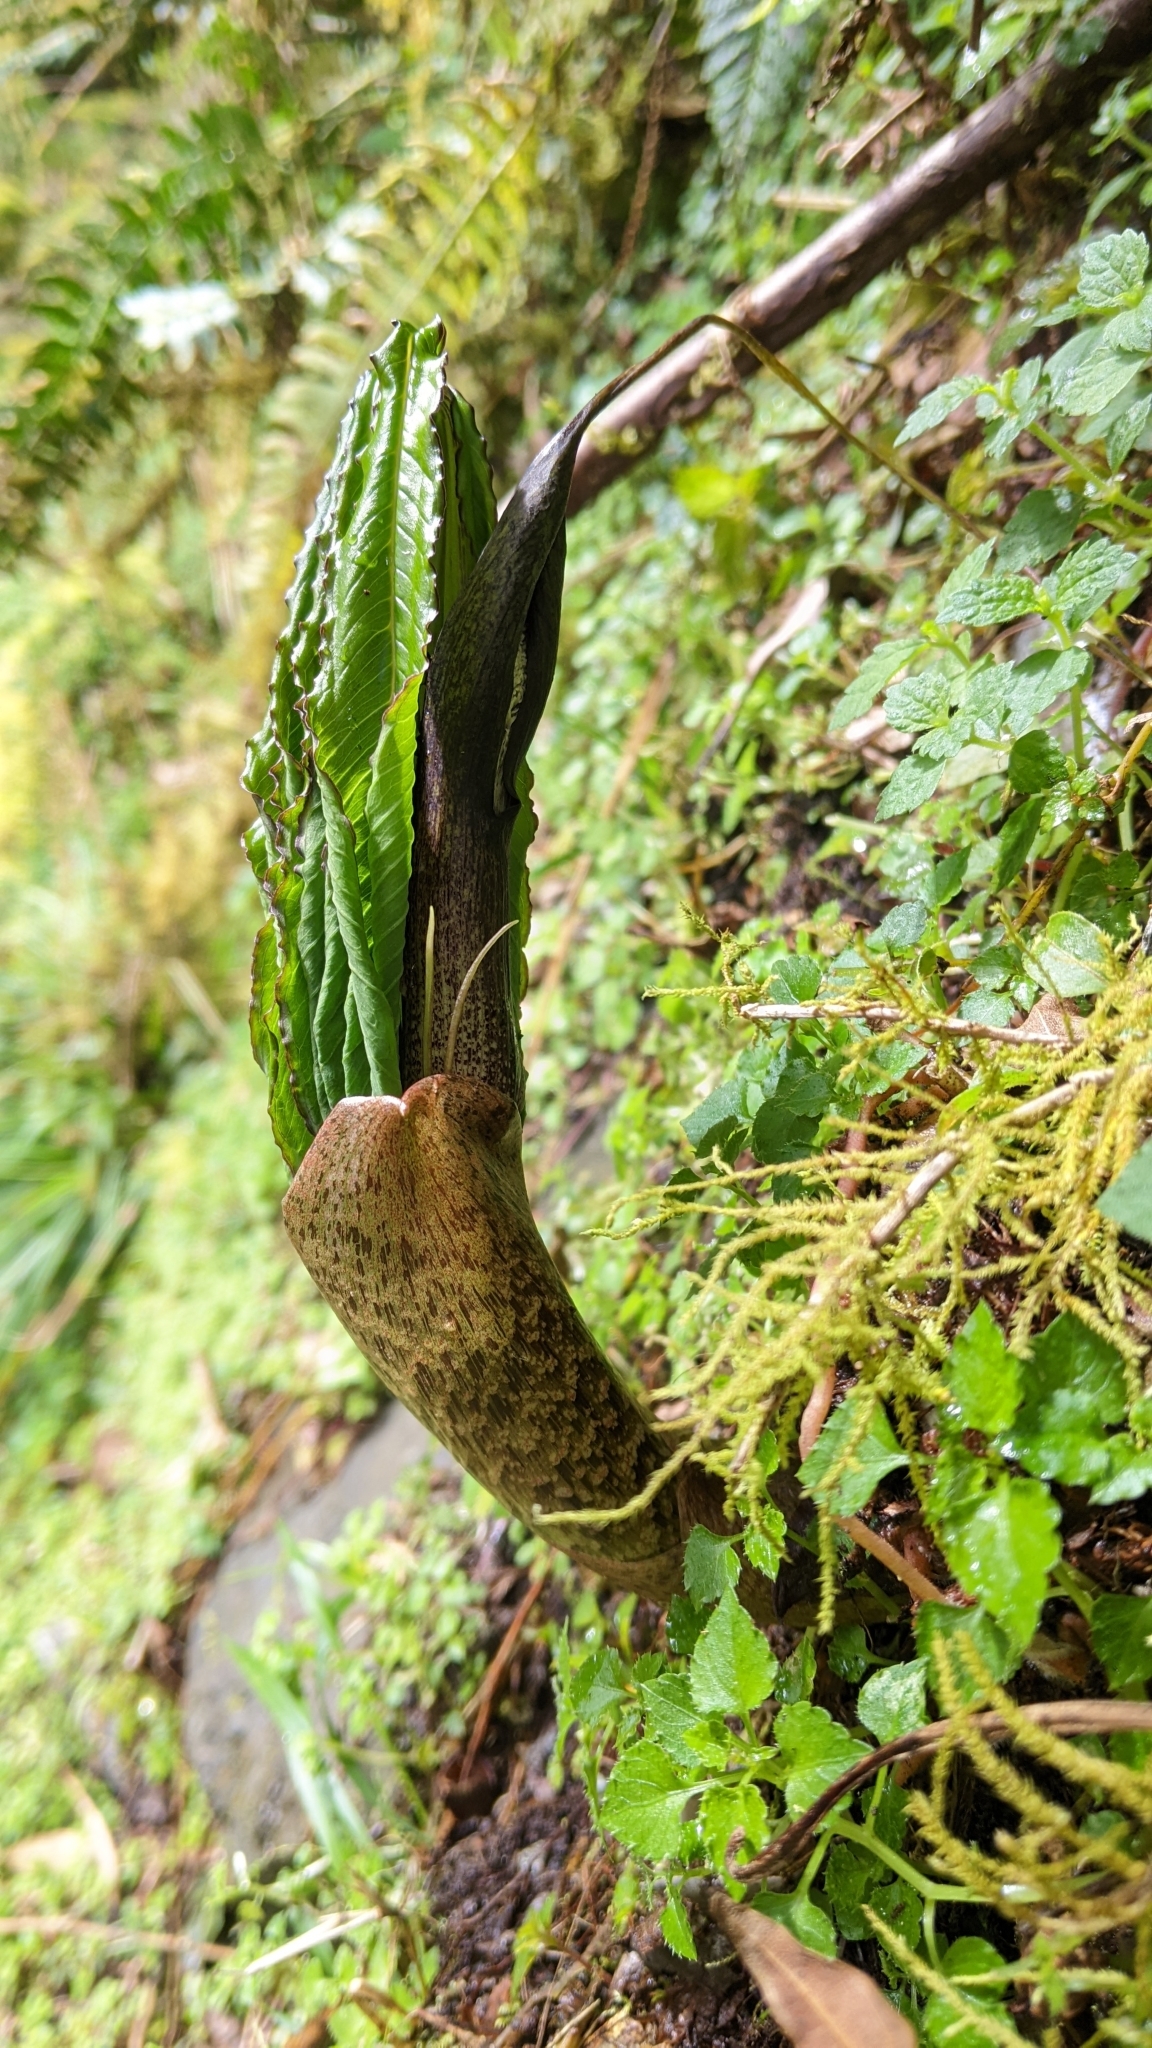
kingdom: Plantae
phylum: Tracheophyta
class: Liliopsida
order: Alismatales
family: Araceae
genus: Arisaema
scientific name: Arisaema taiwanense
